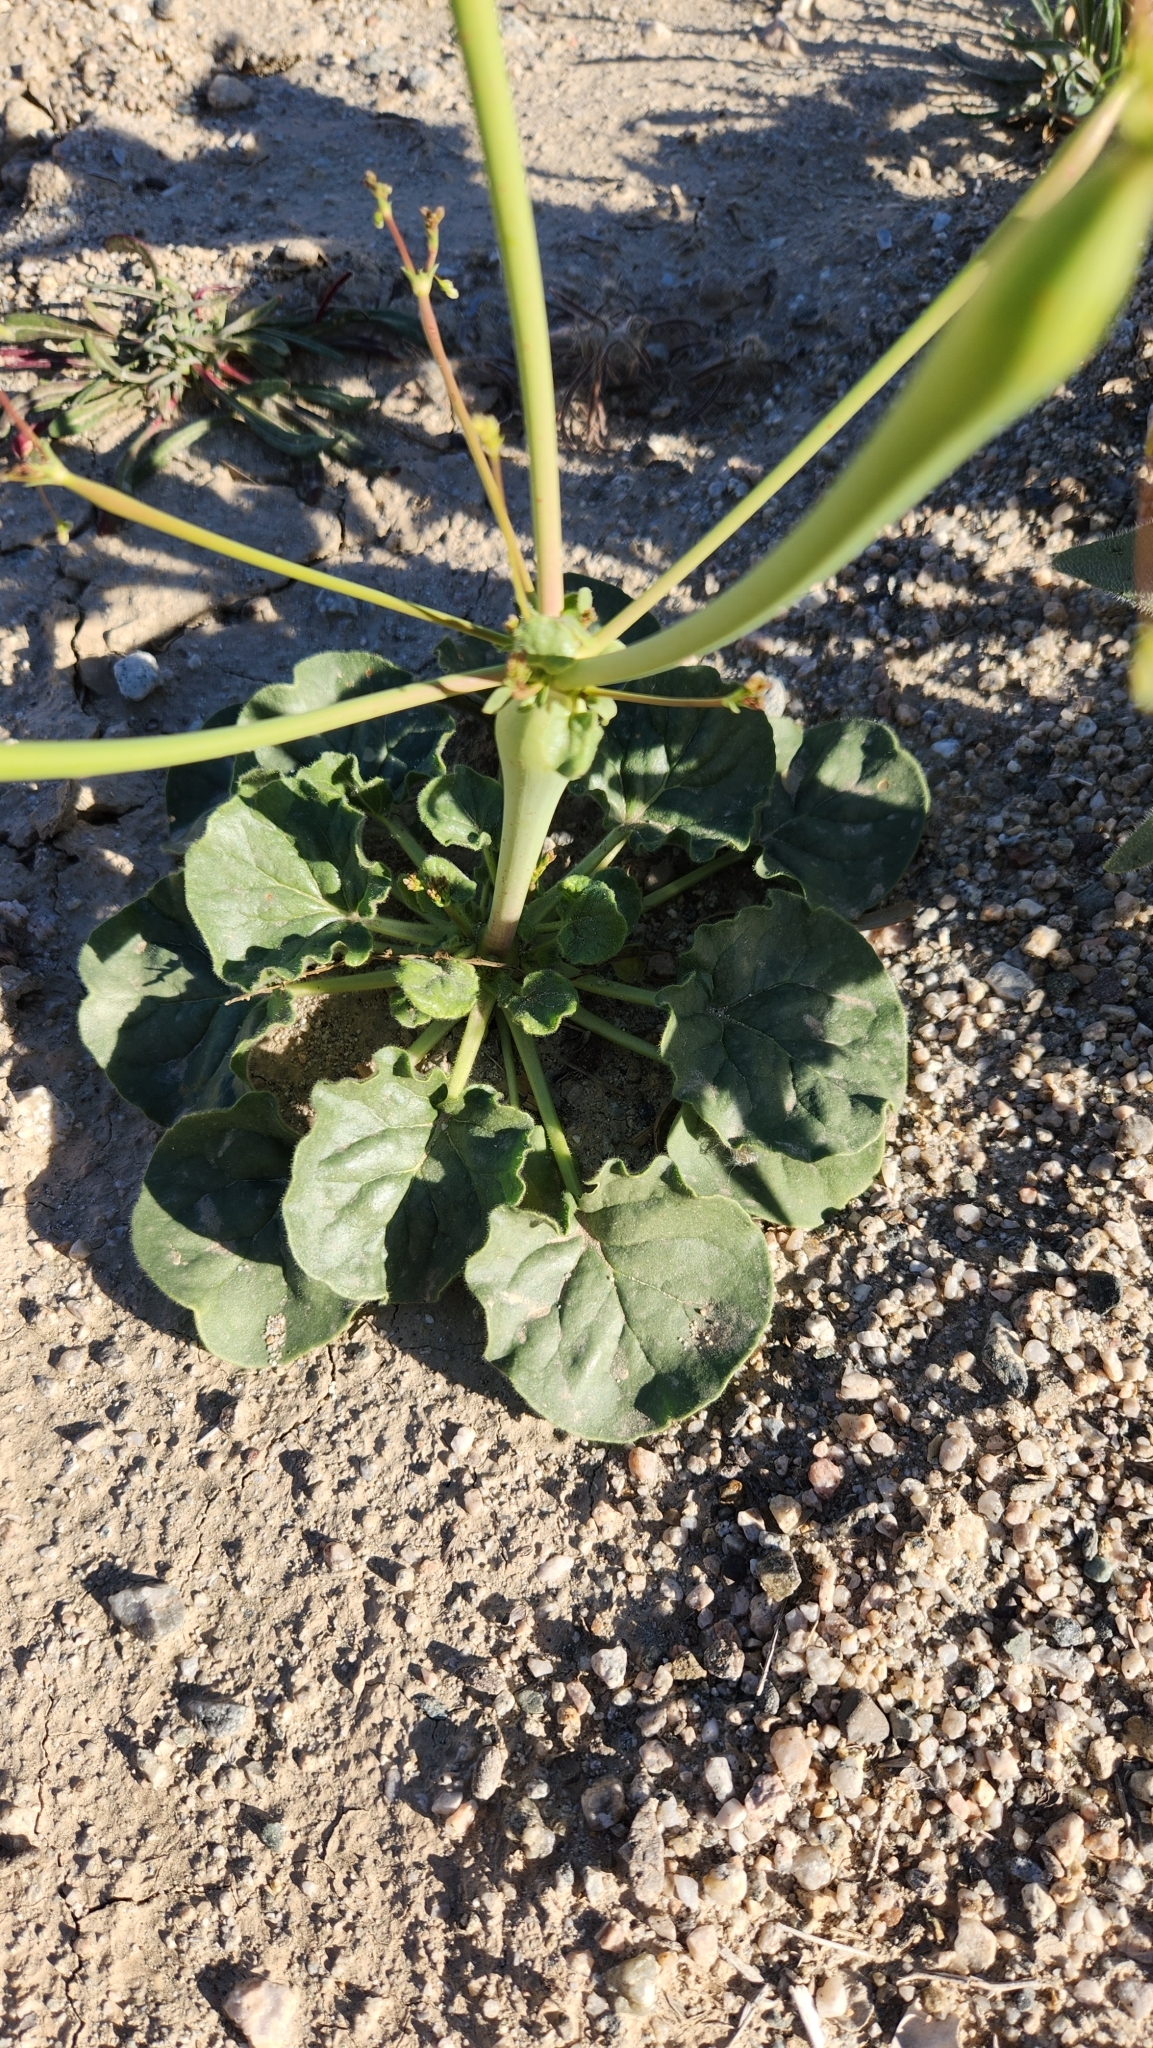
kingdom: Plantae
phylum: Tracheophyta
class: Magnoliopsida
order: Caryophyllales
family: Polygonaceae
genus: Eriogonum
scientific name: Eriogonum trichopes
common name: Little desert trumpet
